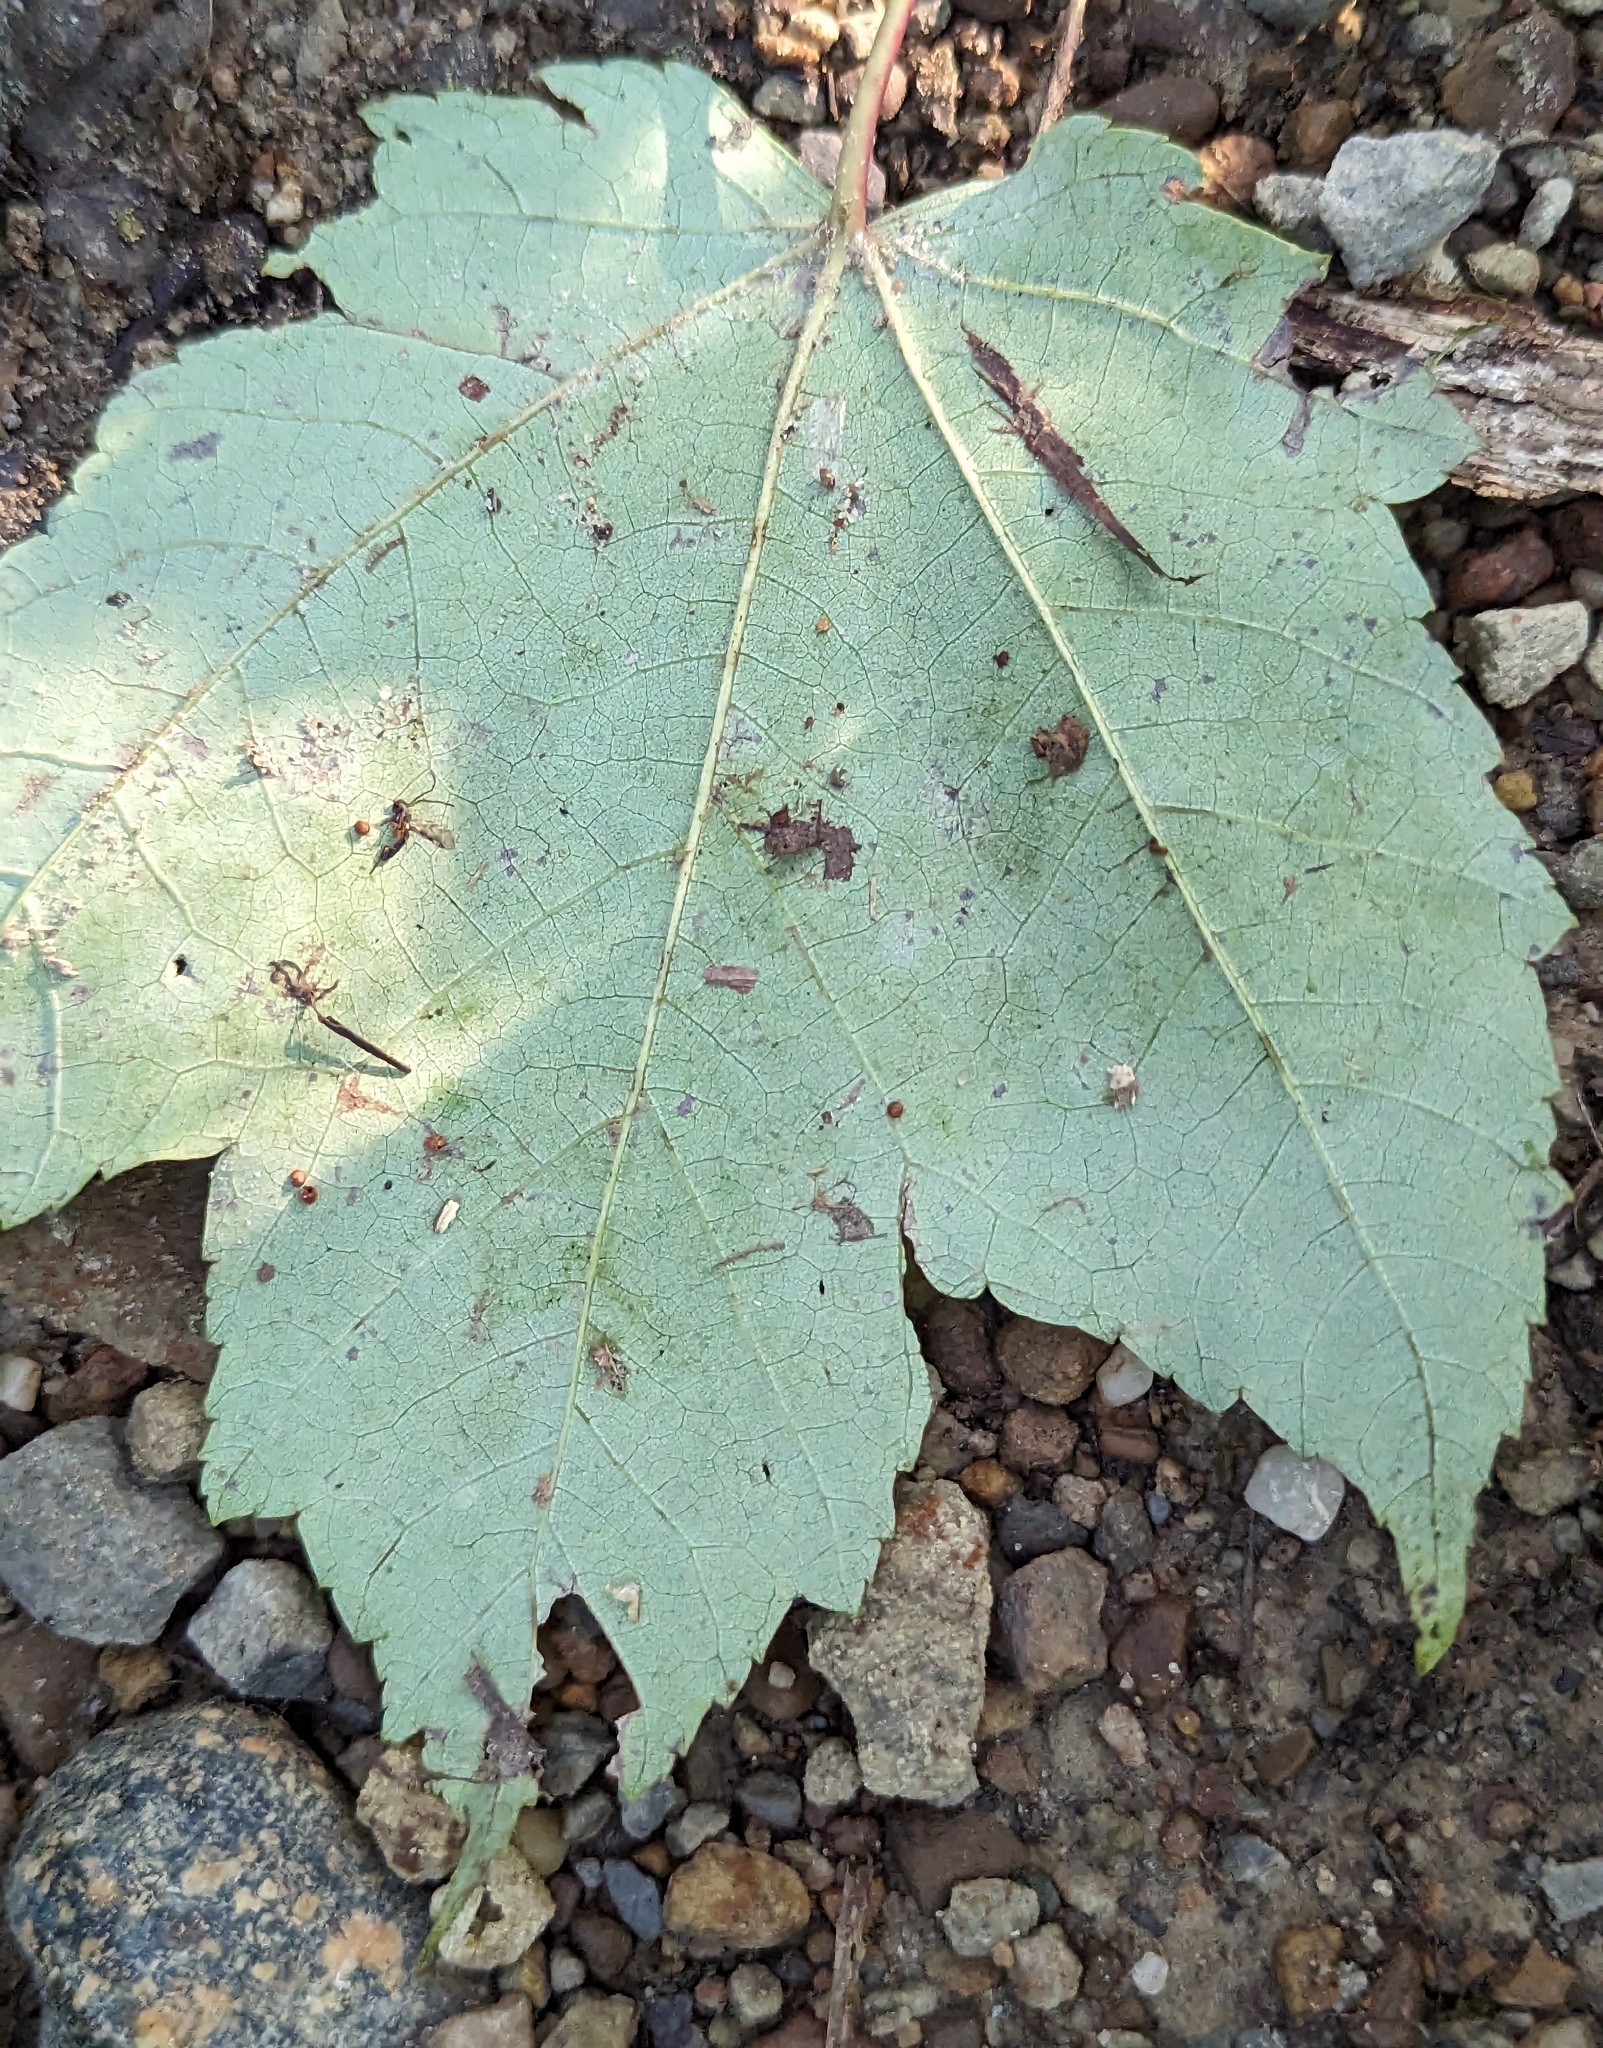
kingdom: Plantae
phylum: Tracheophyta
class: Magnoliopsida
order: Sapindales
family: Sapindaceae
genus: Acer
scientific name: Acer rubrum
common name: Red maple
